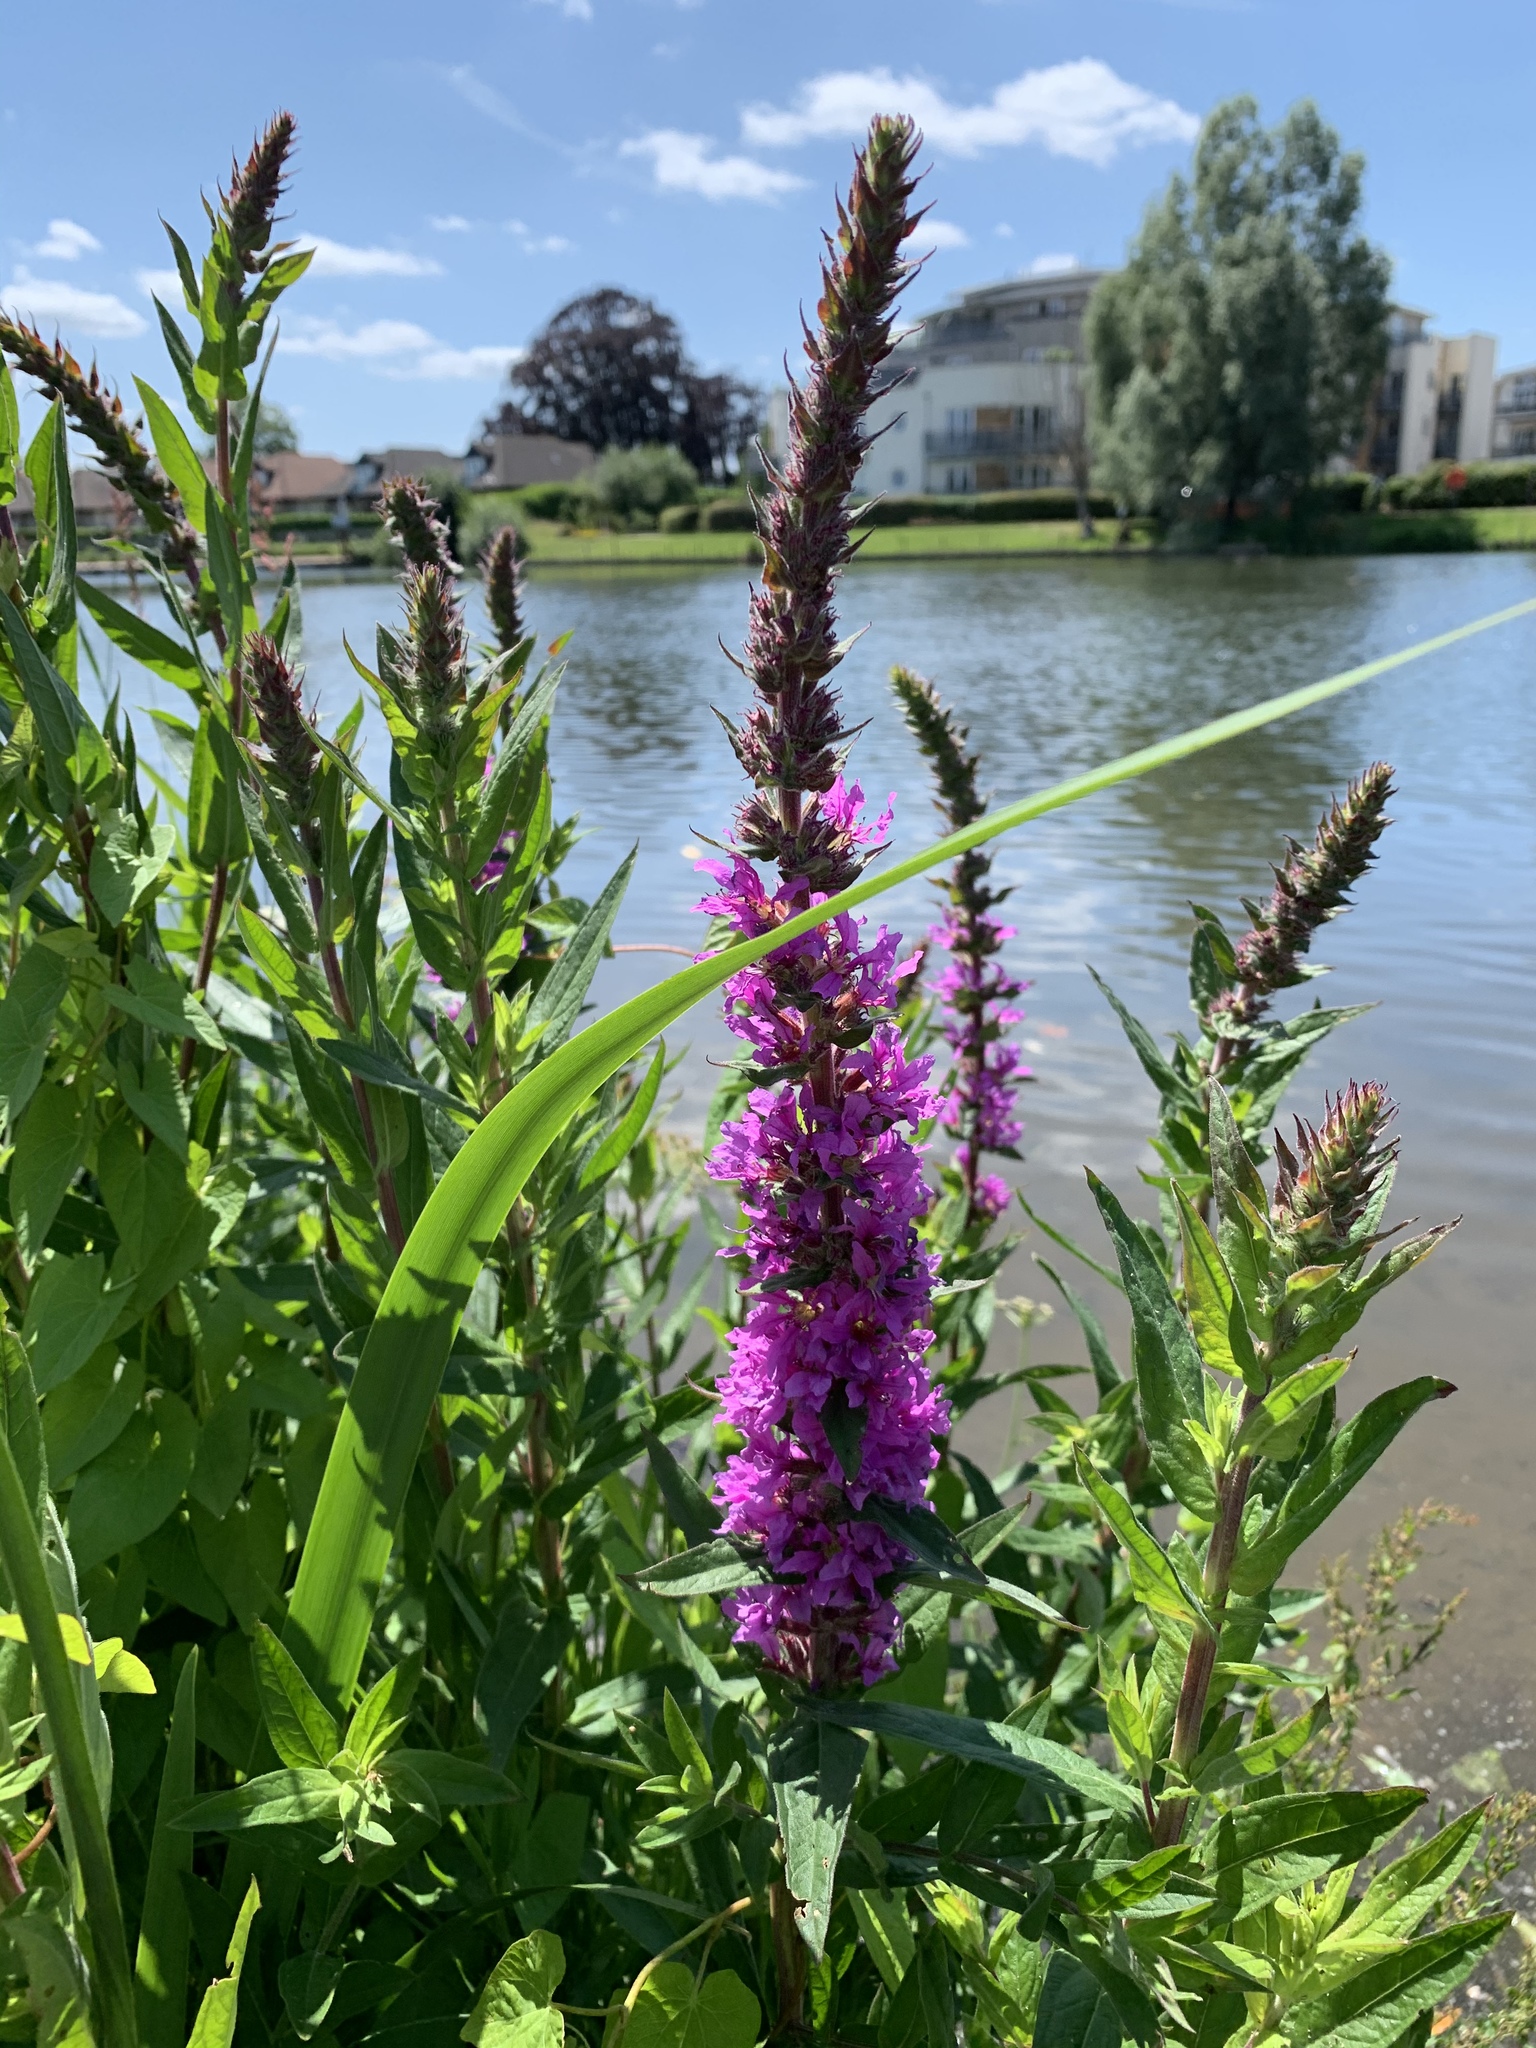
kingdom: Plantae
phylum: Tracheophyta
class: Magnoliopsida
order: Myrtales
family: Lythraceae
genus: Lythrum
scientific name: Lythrum salicaria
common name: Purple loosestrife
